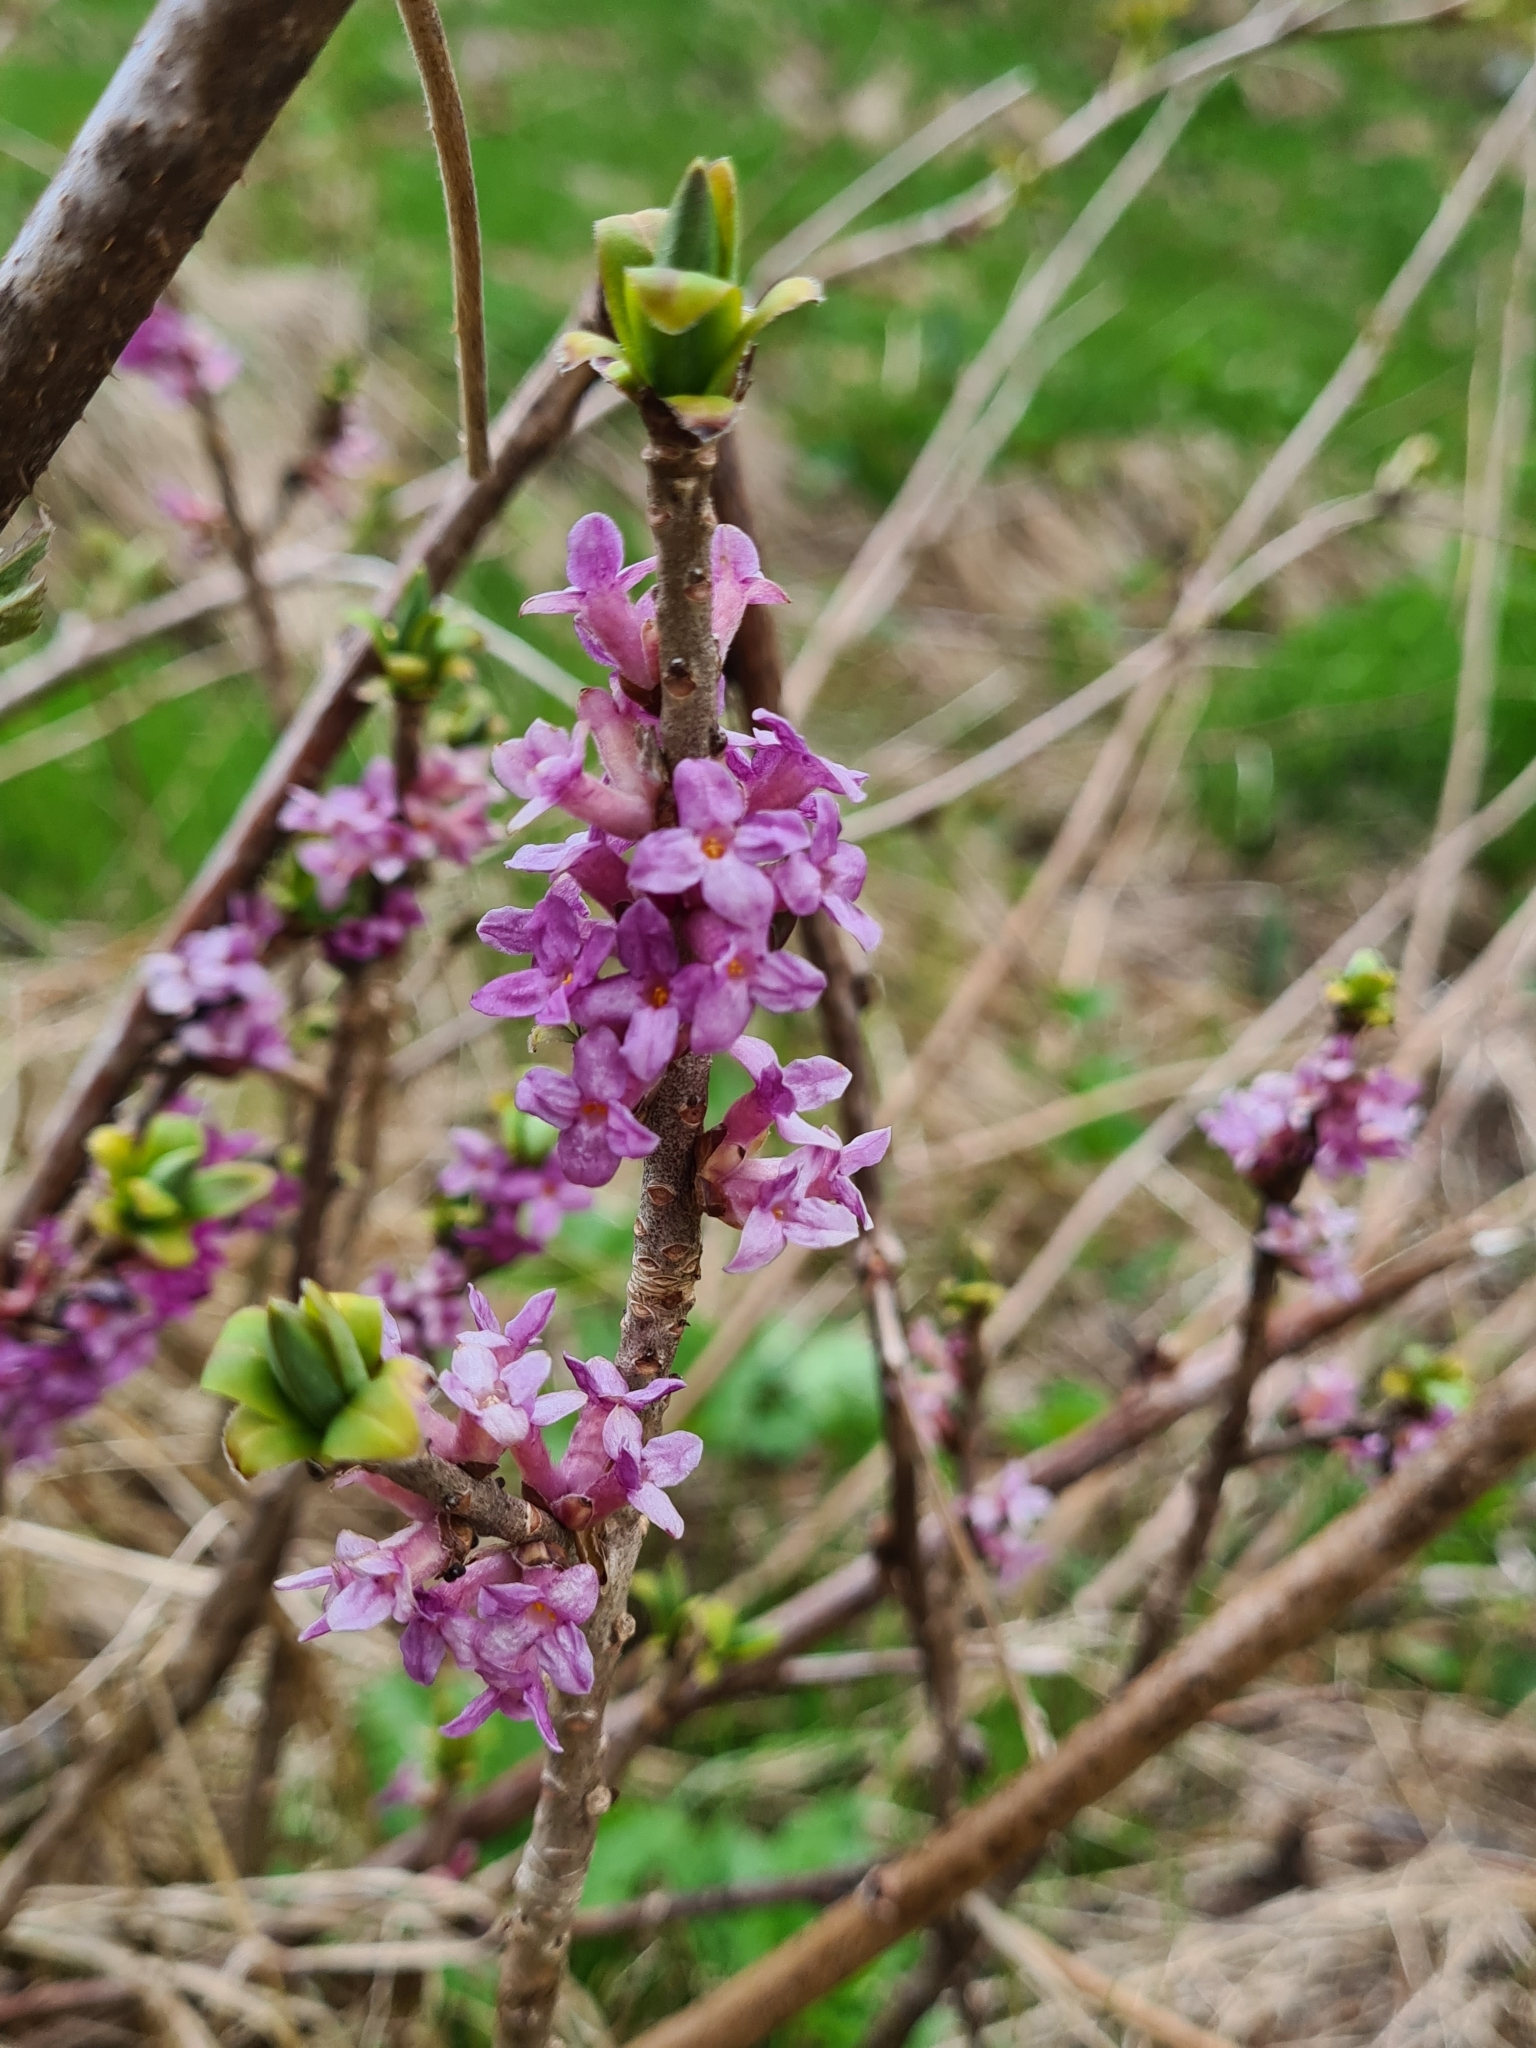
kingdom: Plantae
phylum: Tracheophyta
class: Magnoliopsida
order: Malvales
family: Thymelaeaceae
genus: Daphne
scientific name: Daphne mezereum
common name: Mezereon
